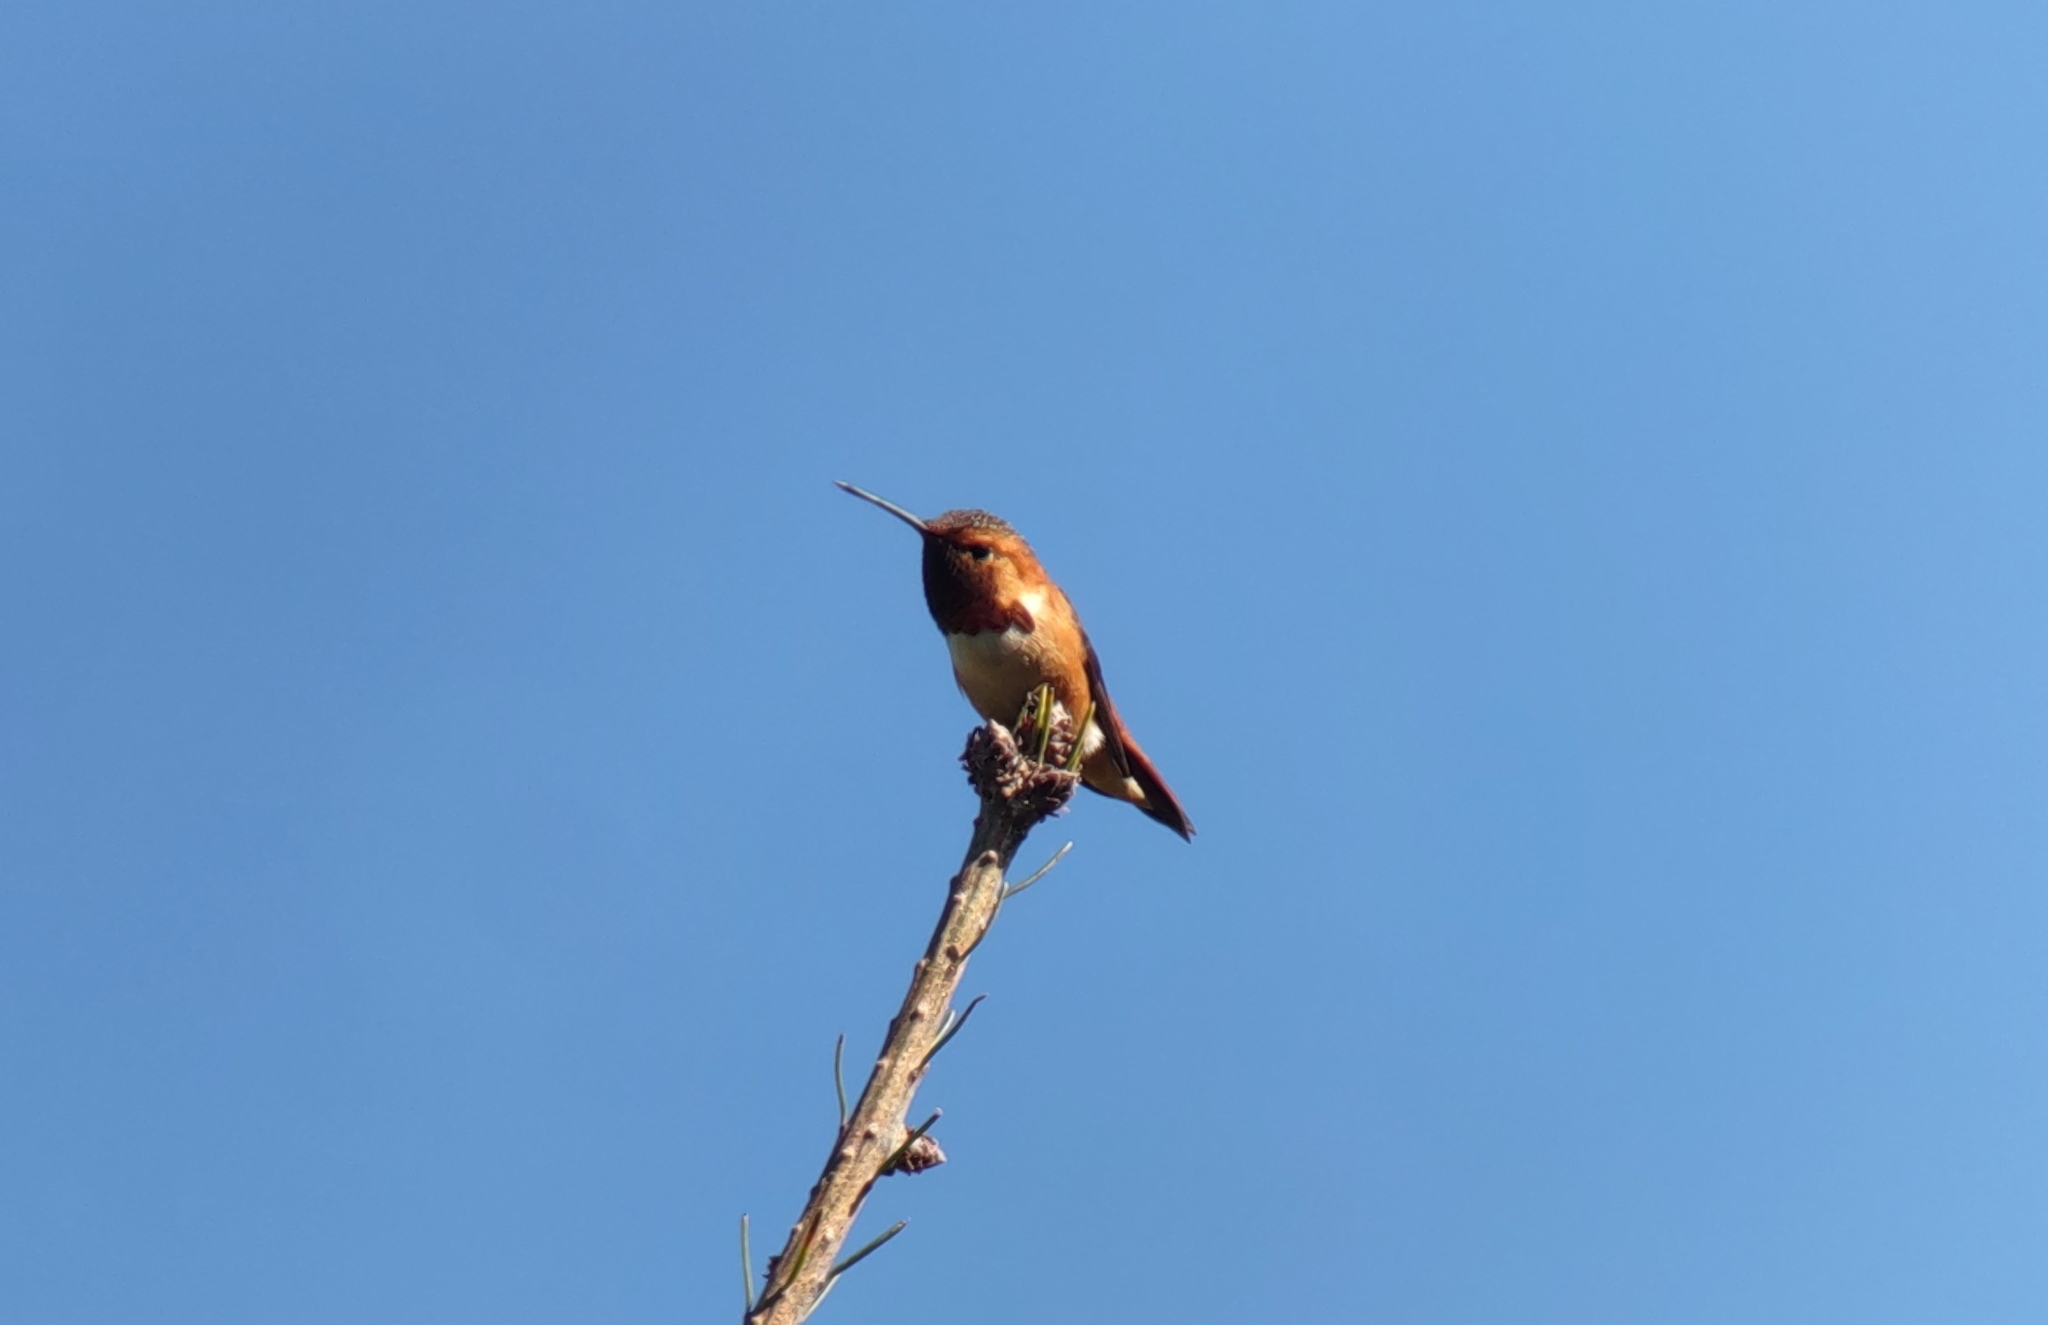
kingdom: Animalia
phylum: Chordata
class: Aves
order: Apodiformes
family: Trochilidae
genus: Selasphorus
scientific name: Selasphorus rufus
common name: Rufous hummingbird
